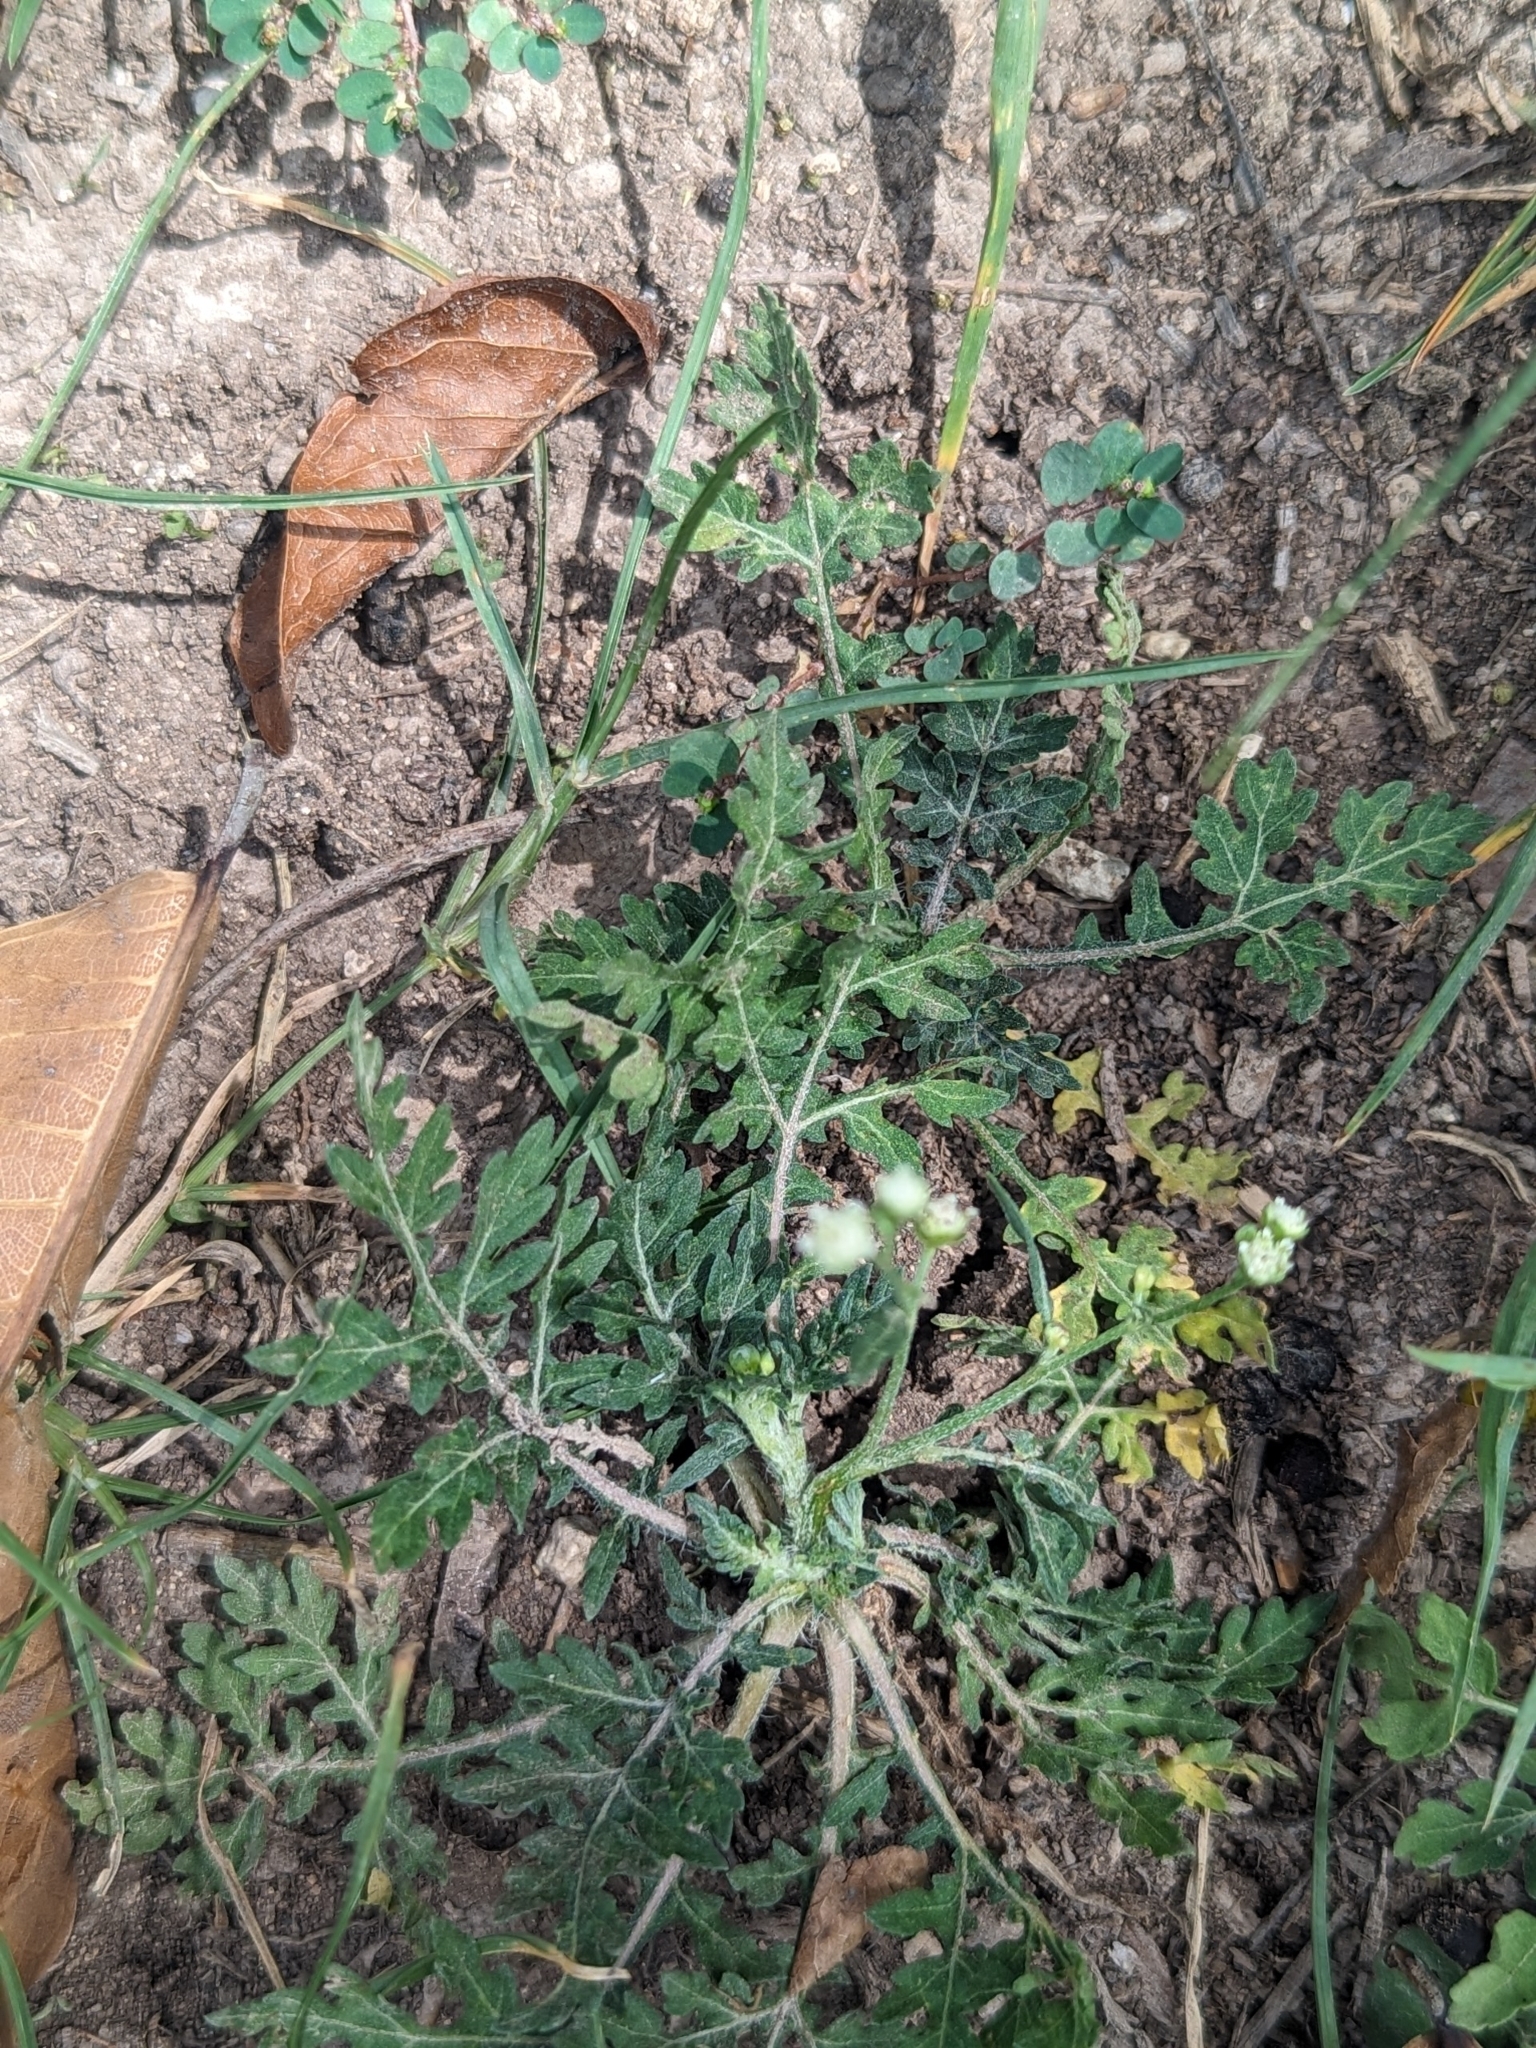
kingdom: Plantae
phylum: Tracheophyta
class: Magnoliopsida
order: Asterales
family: Asteraceae
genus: Parthenium
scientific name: Parthenium hysterophorus
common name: Santa maria feverfew
